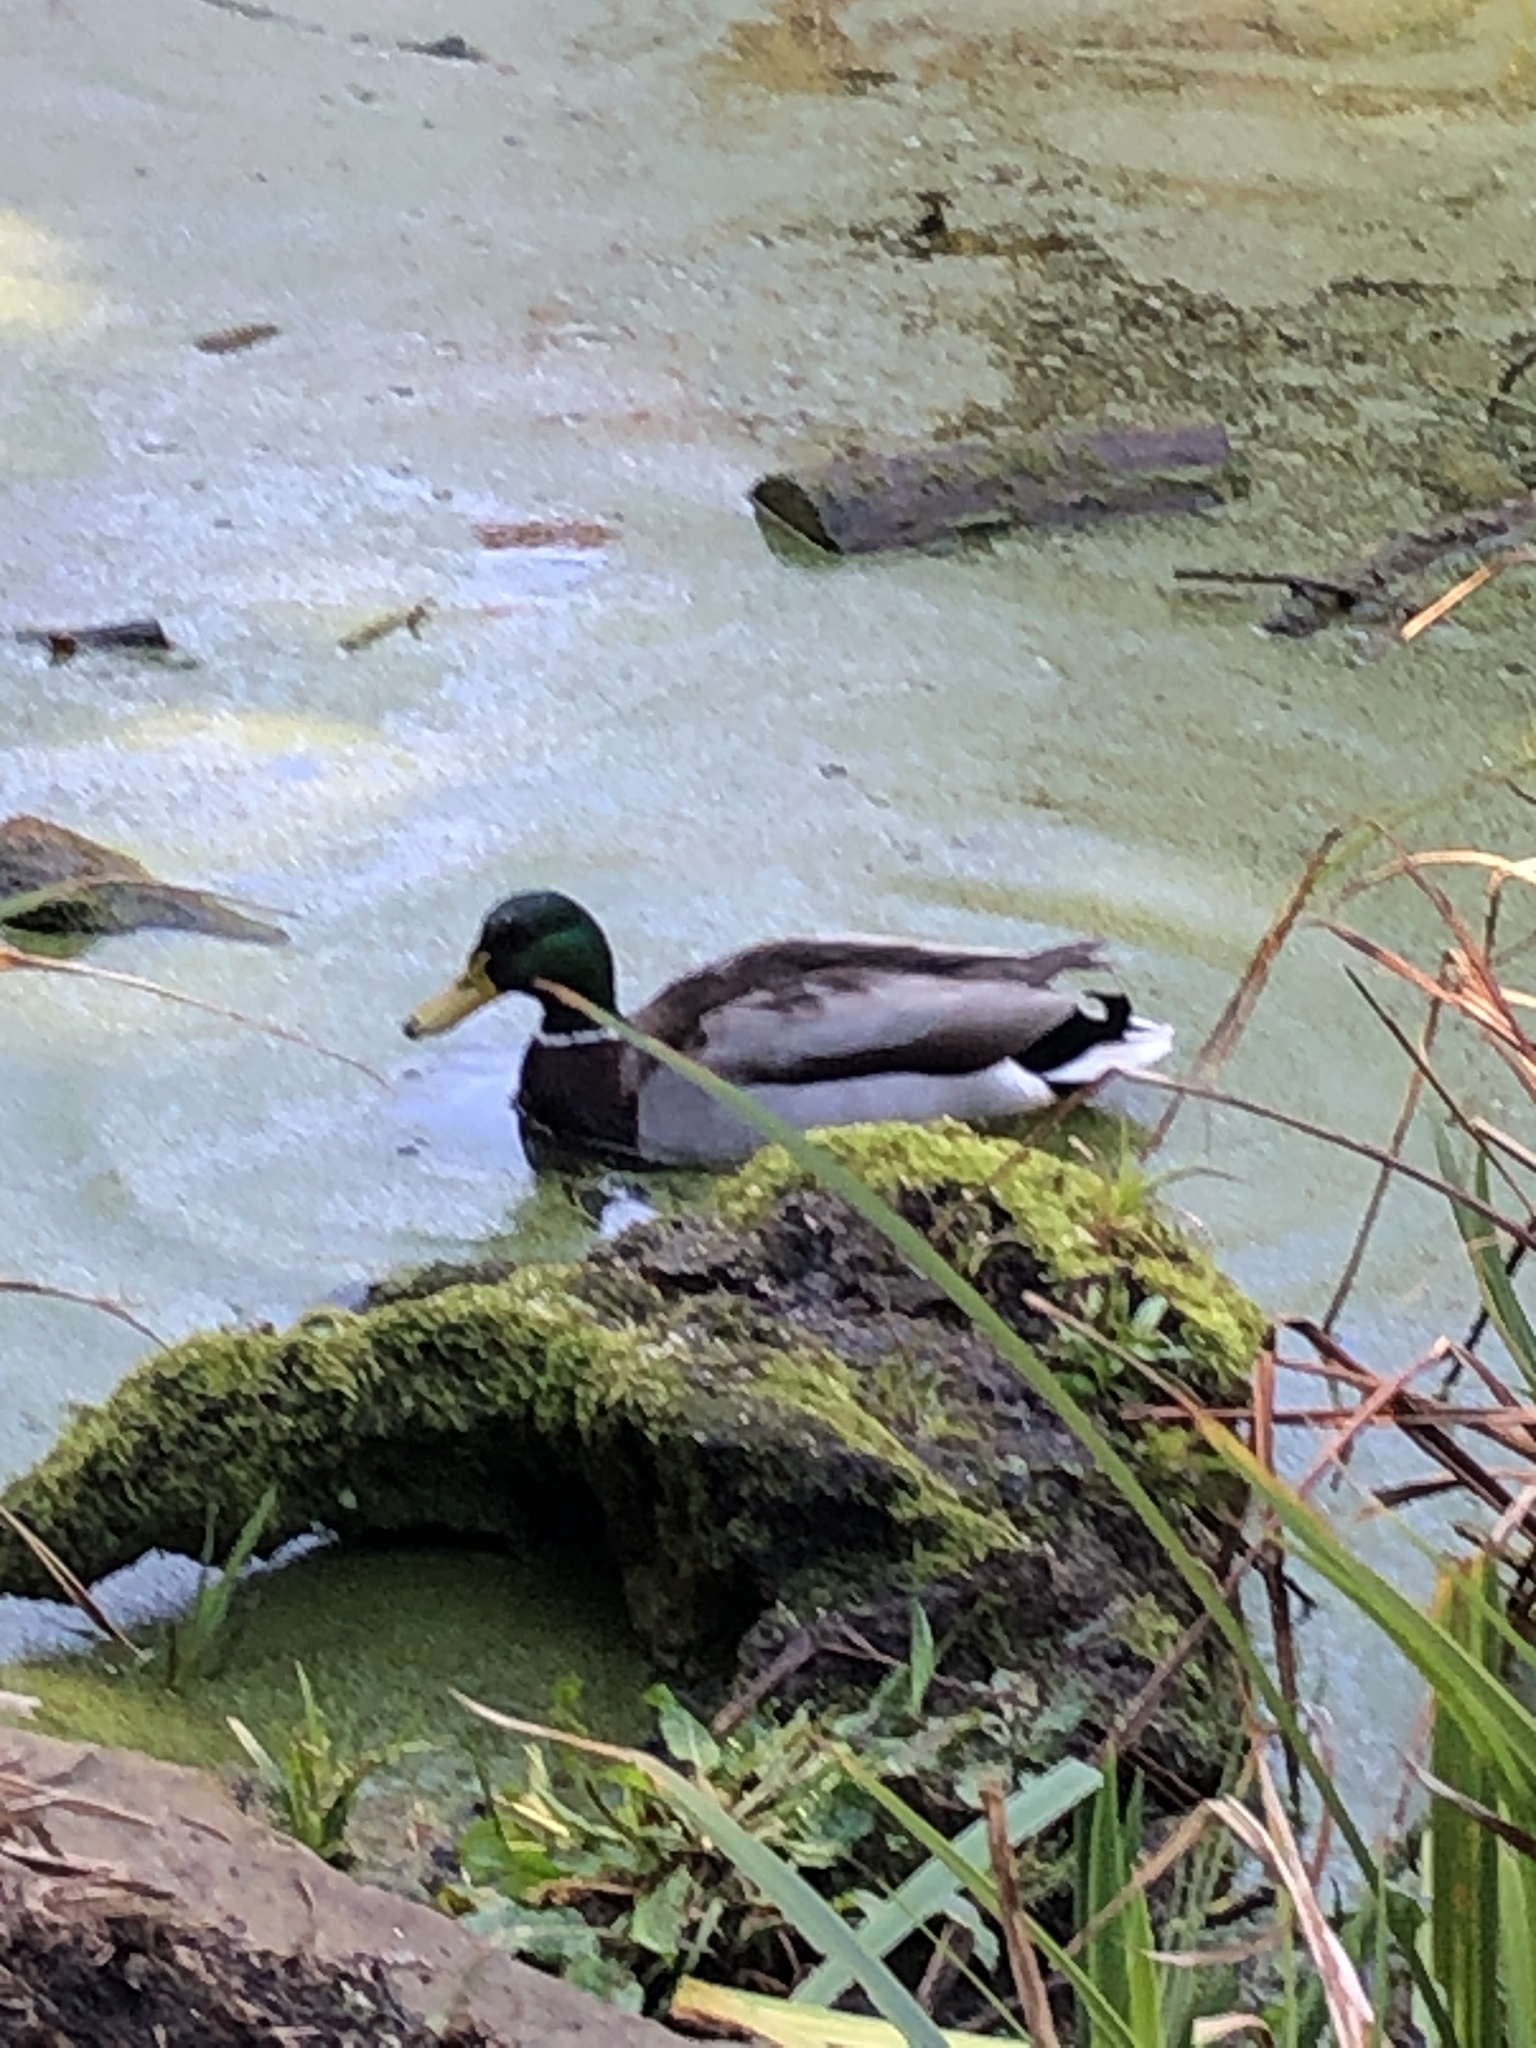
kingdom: Animalia
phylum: Chordata
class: Aves
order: Anseriformes
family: Anatidae
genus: Anas
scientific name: Anas platyrhynchos
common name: Mallard
